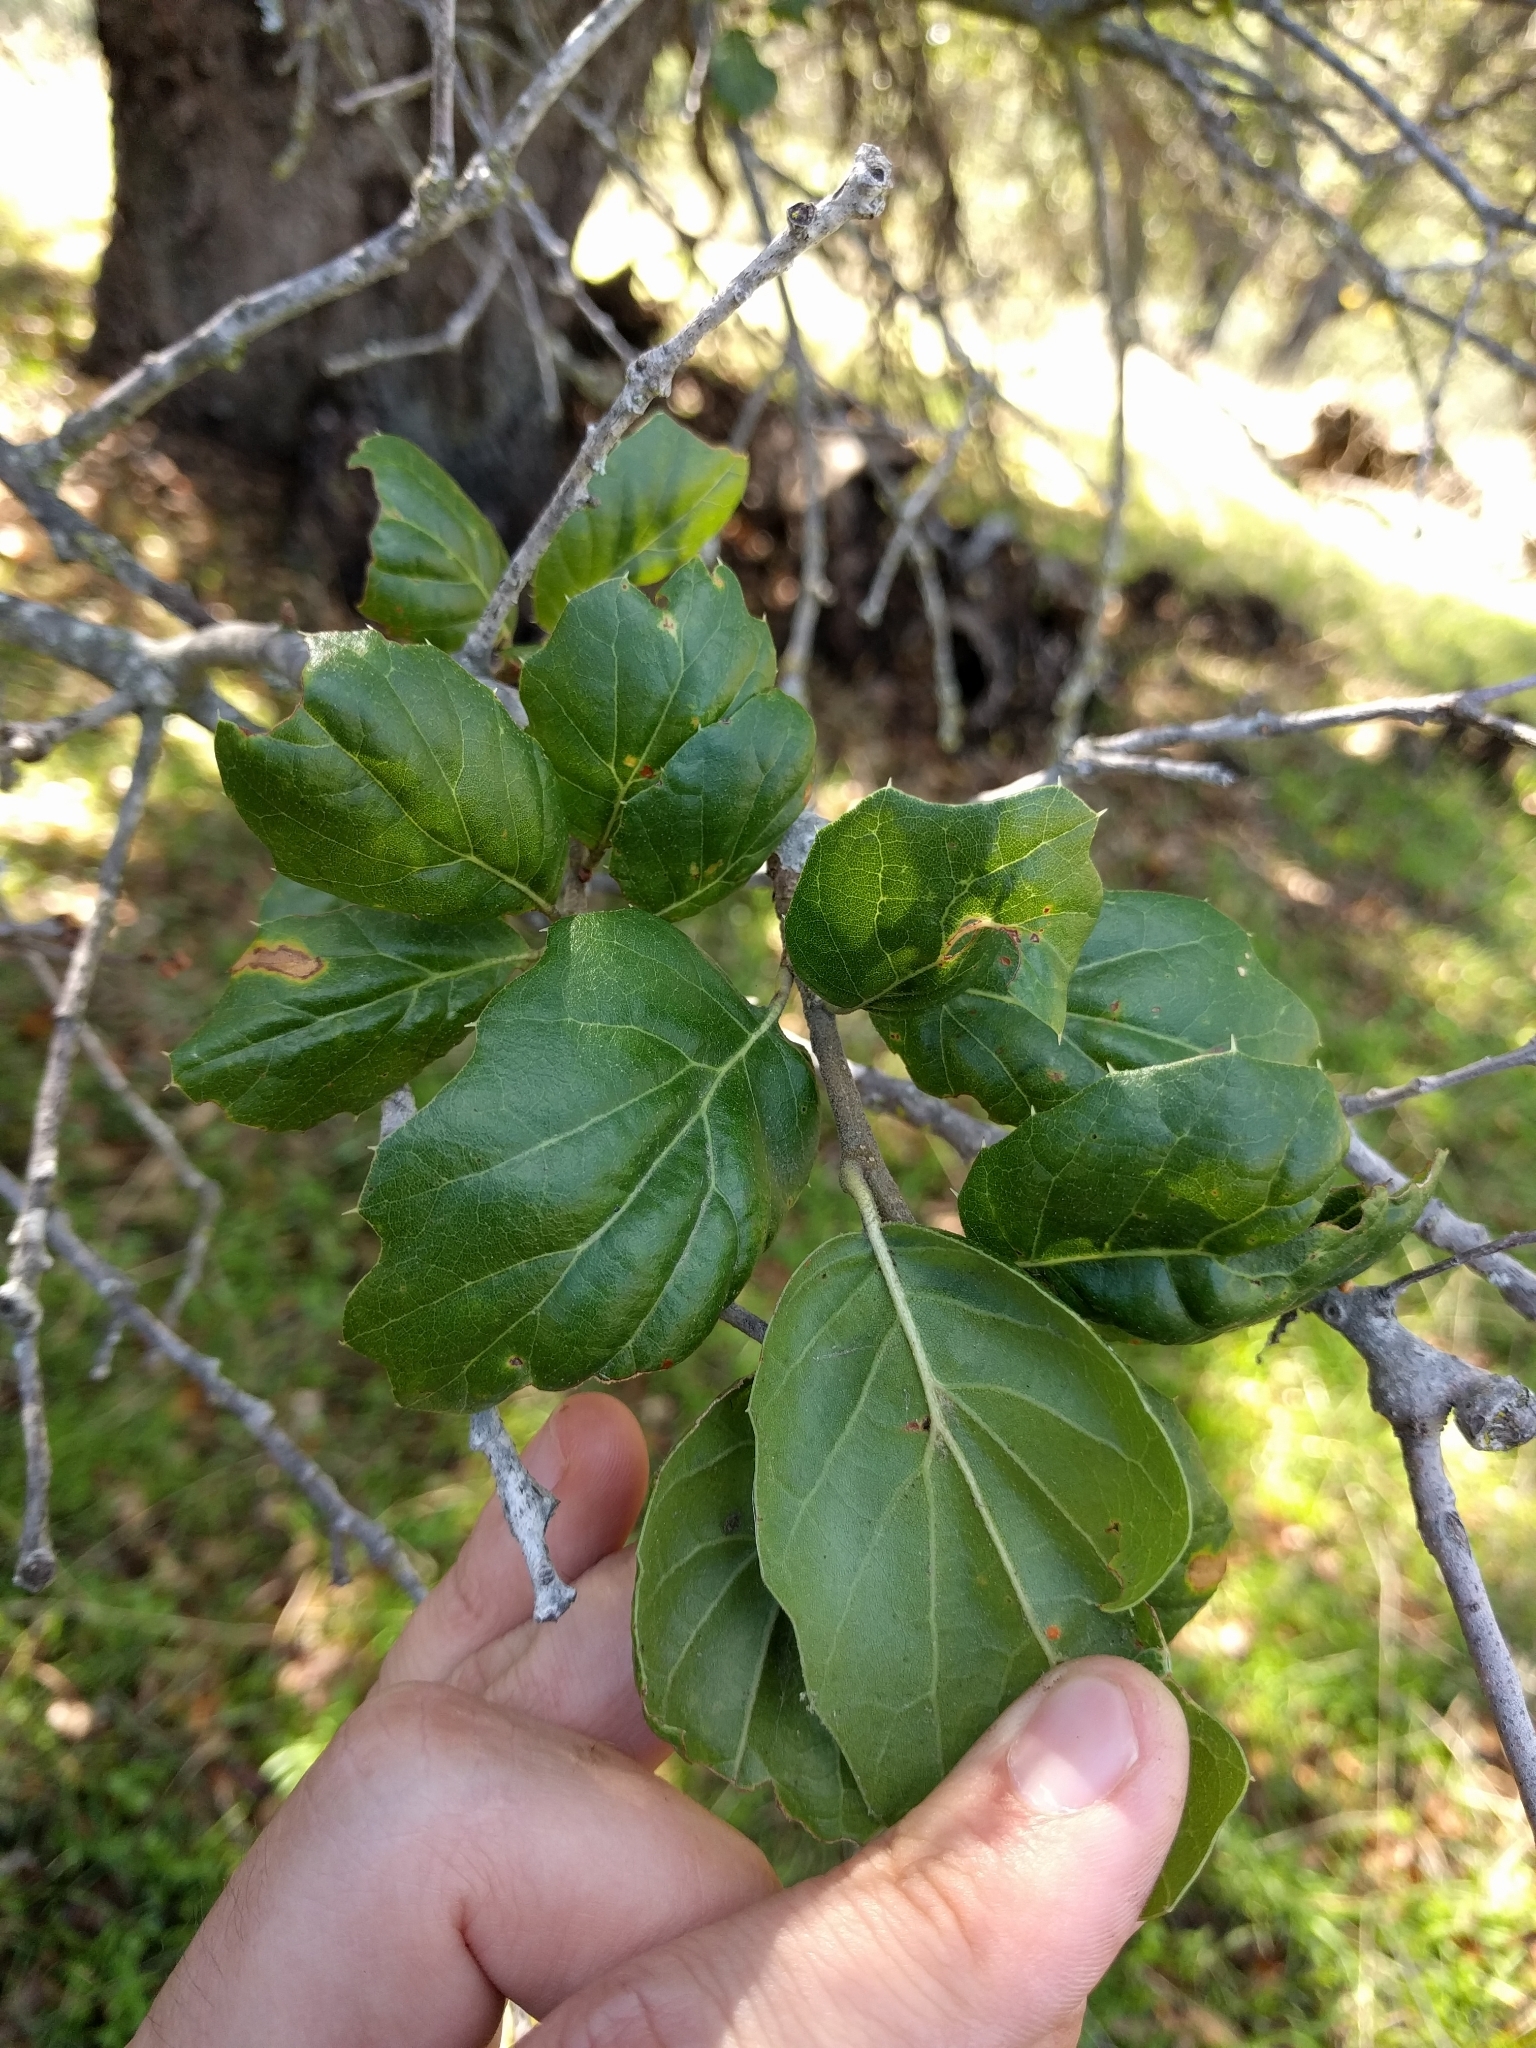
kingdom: Plantae
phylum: Tracheophyta
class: Magnoliopsida
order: Fagales
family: Fagaceae
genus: Quercus
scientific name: Quercus agrifolia
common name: California live oak
